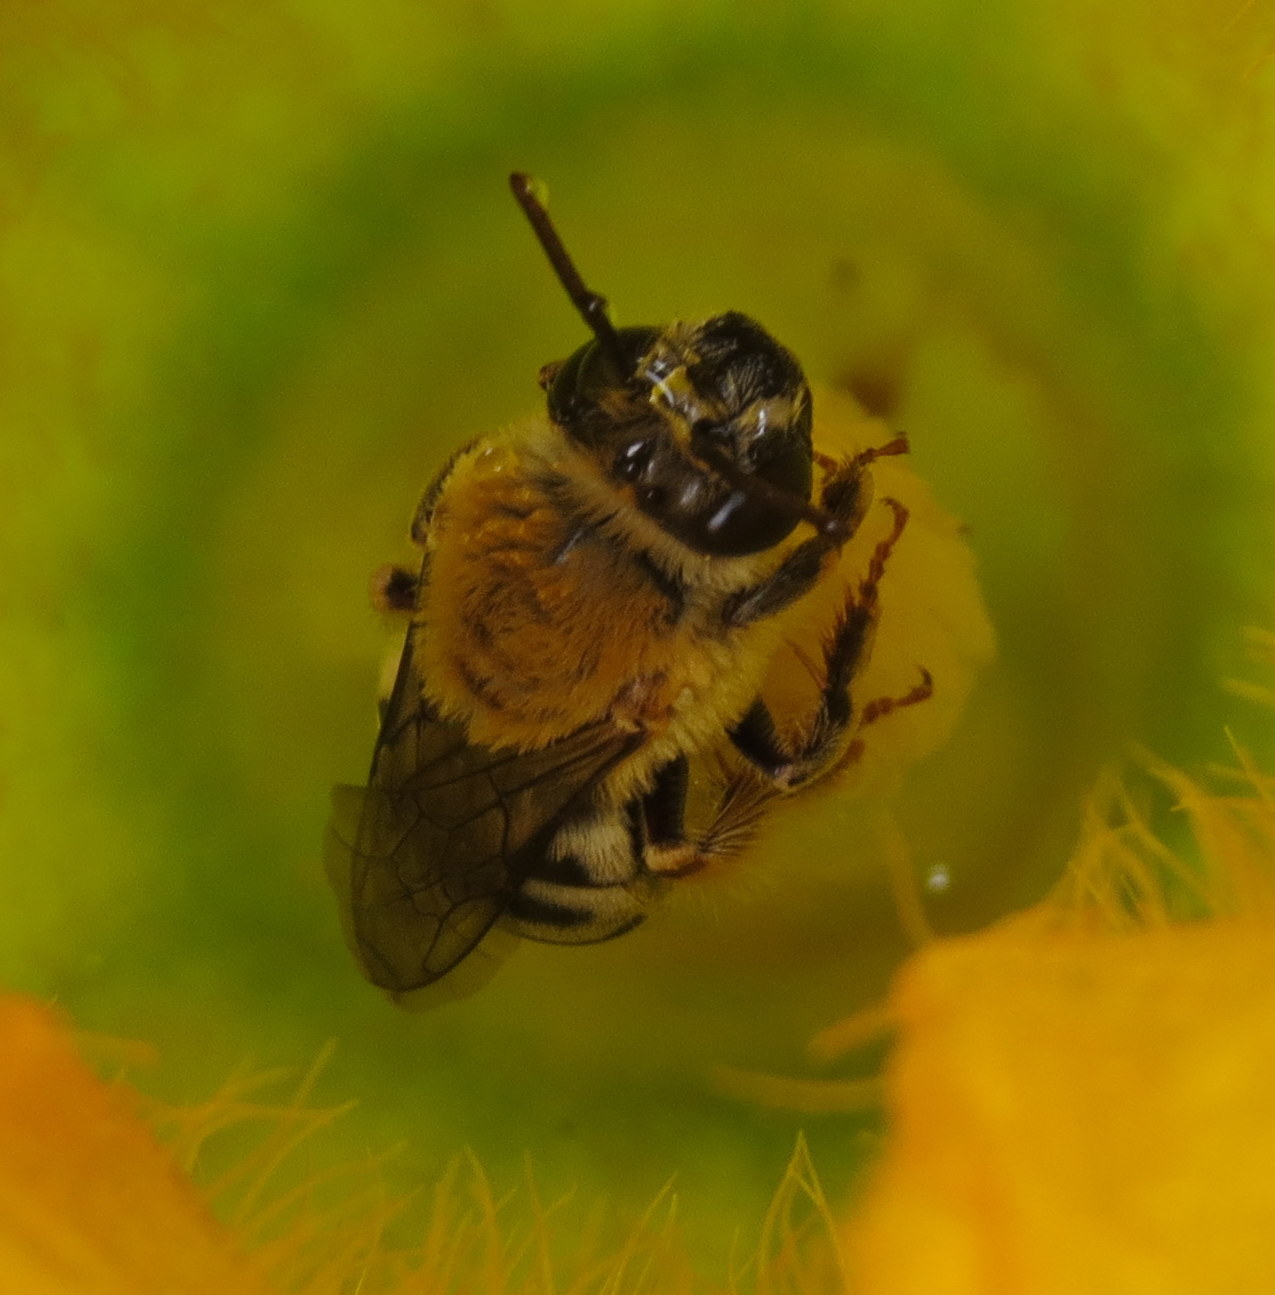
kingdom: Animalia
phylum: Arthropoda
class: Insecta
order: Hymenoptera
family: Apidae
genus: Peponapis
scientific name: Peponapis pruinosa
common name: Pruinose squash bee
